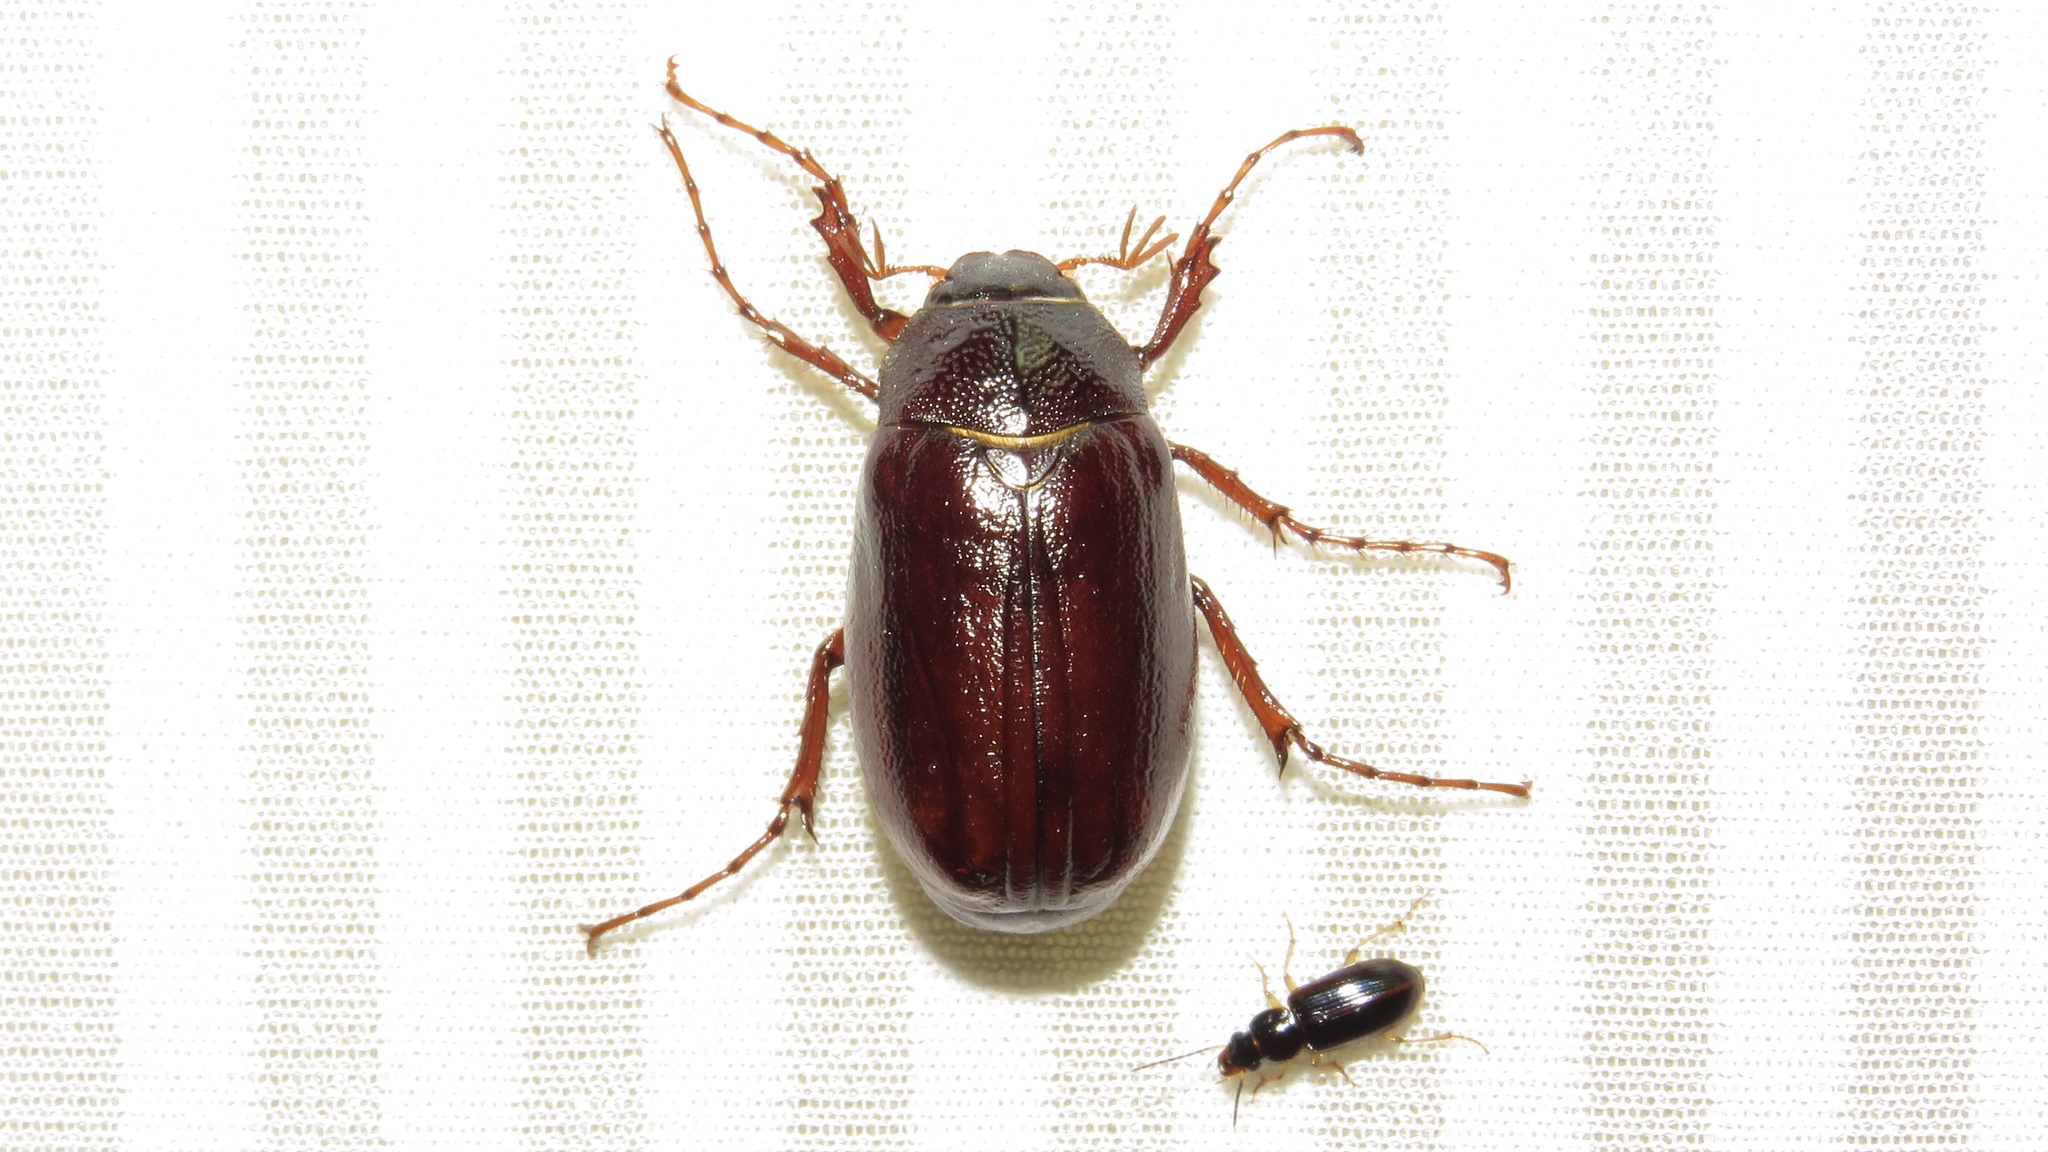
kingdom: Animalia
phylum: Arthropoda
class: Insecta
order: Coleoptera
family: Scarabaeidae
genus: Phyllophaga
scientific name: Phyllophaga rugosa
